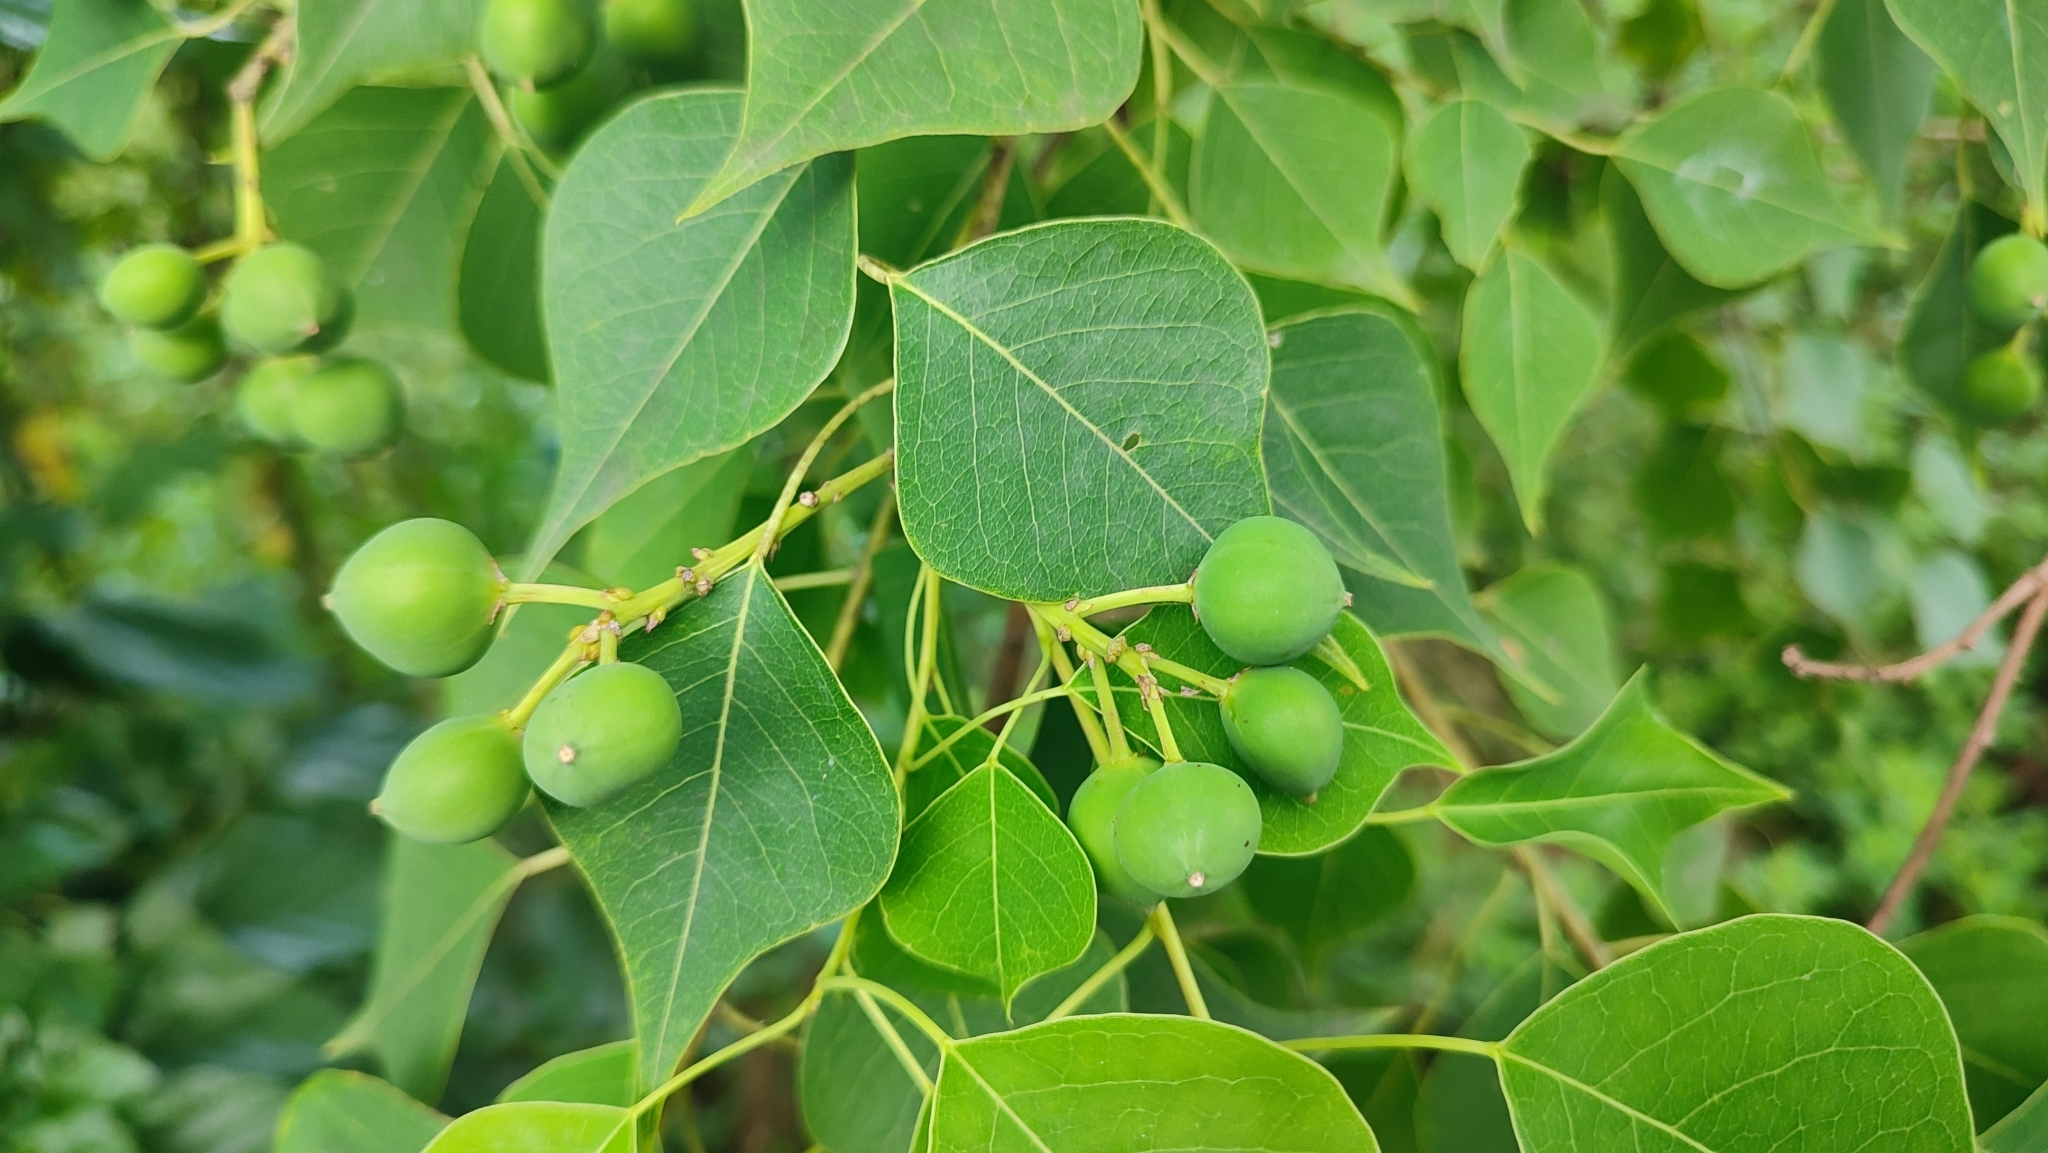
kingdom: Plantae
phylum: Tracheophyta
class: Magnoliopsida
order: Malpighiales
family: Euphorbiaceae
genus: Triadica
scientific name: Triadica sebifera
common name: Chinese tallow
